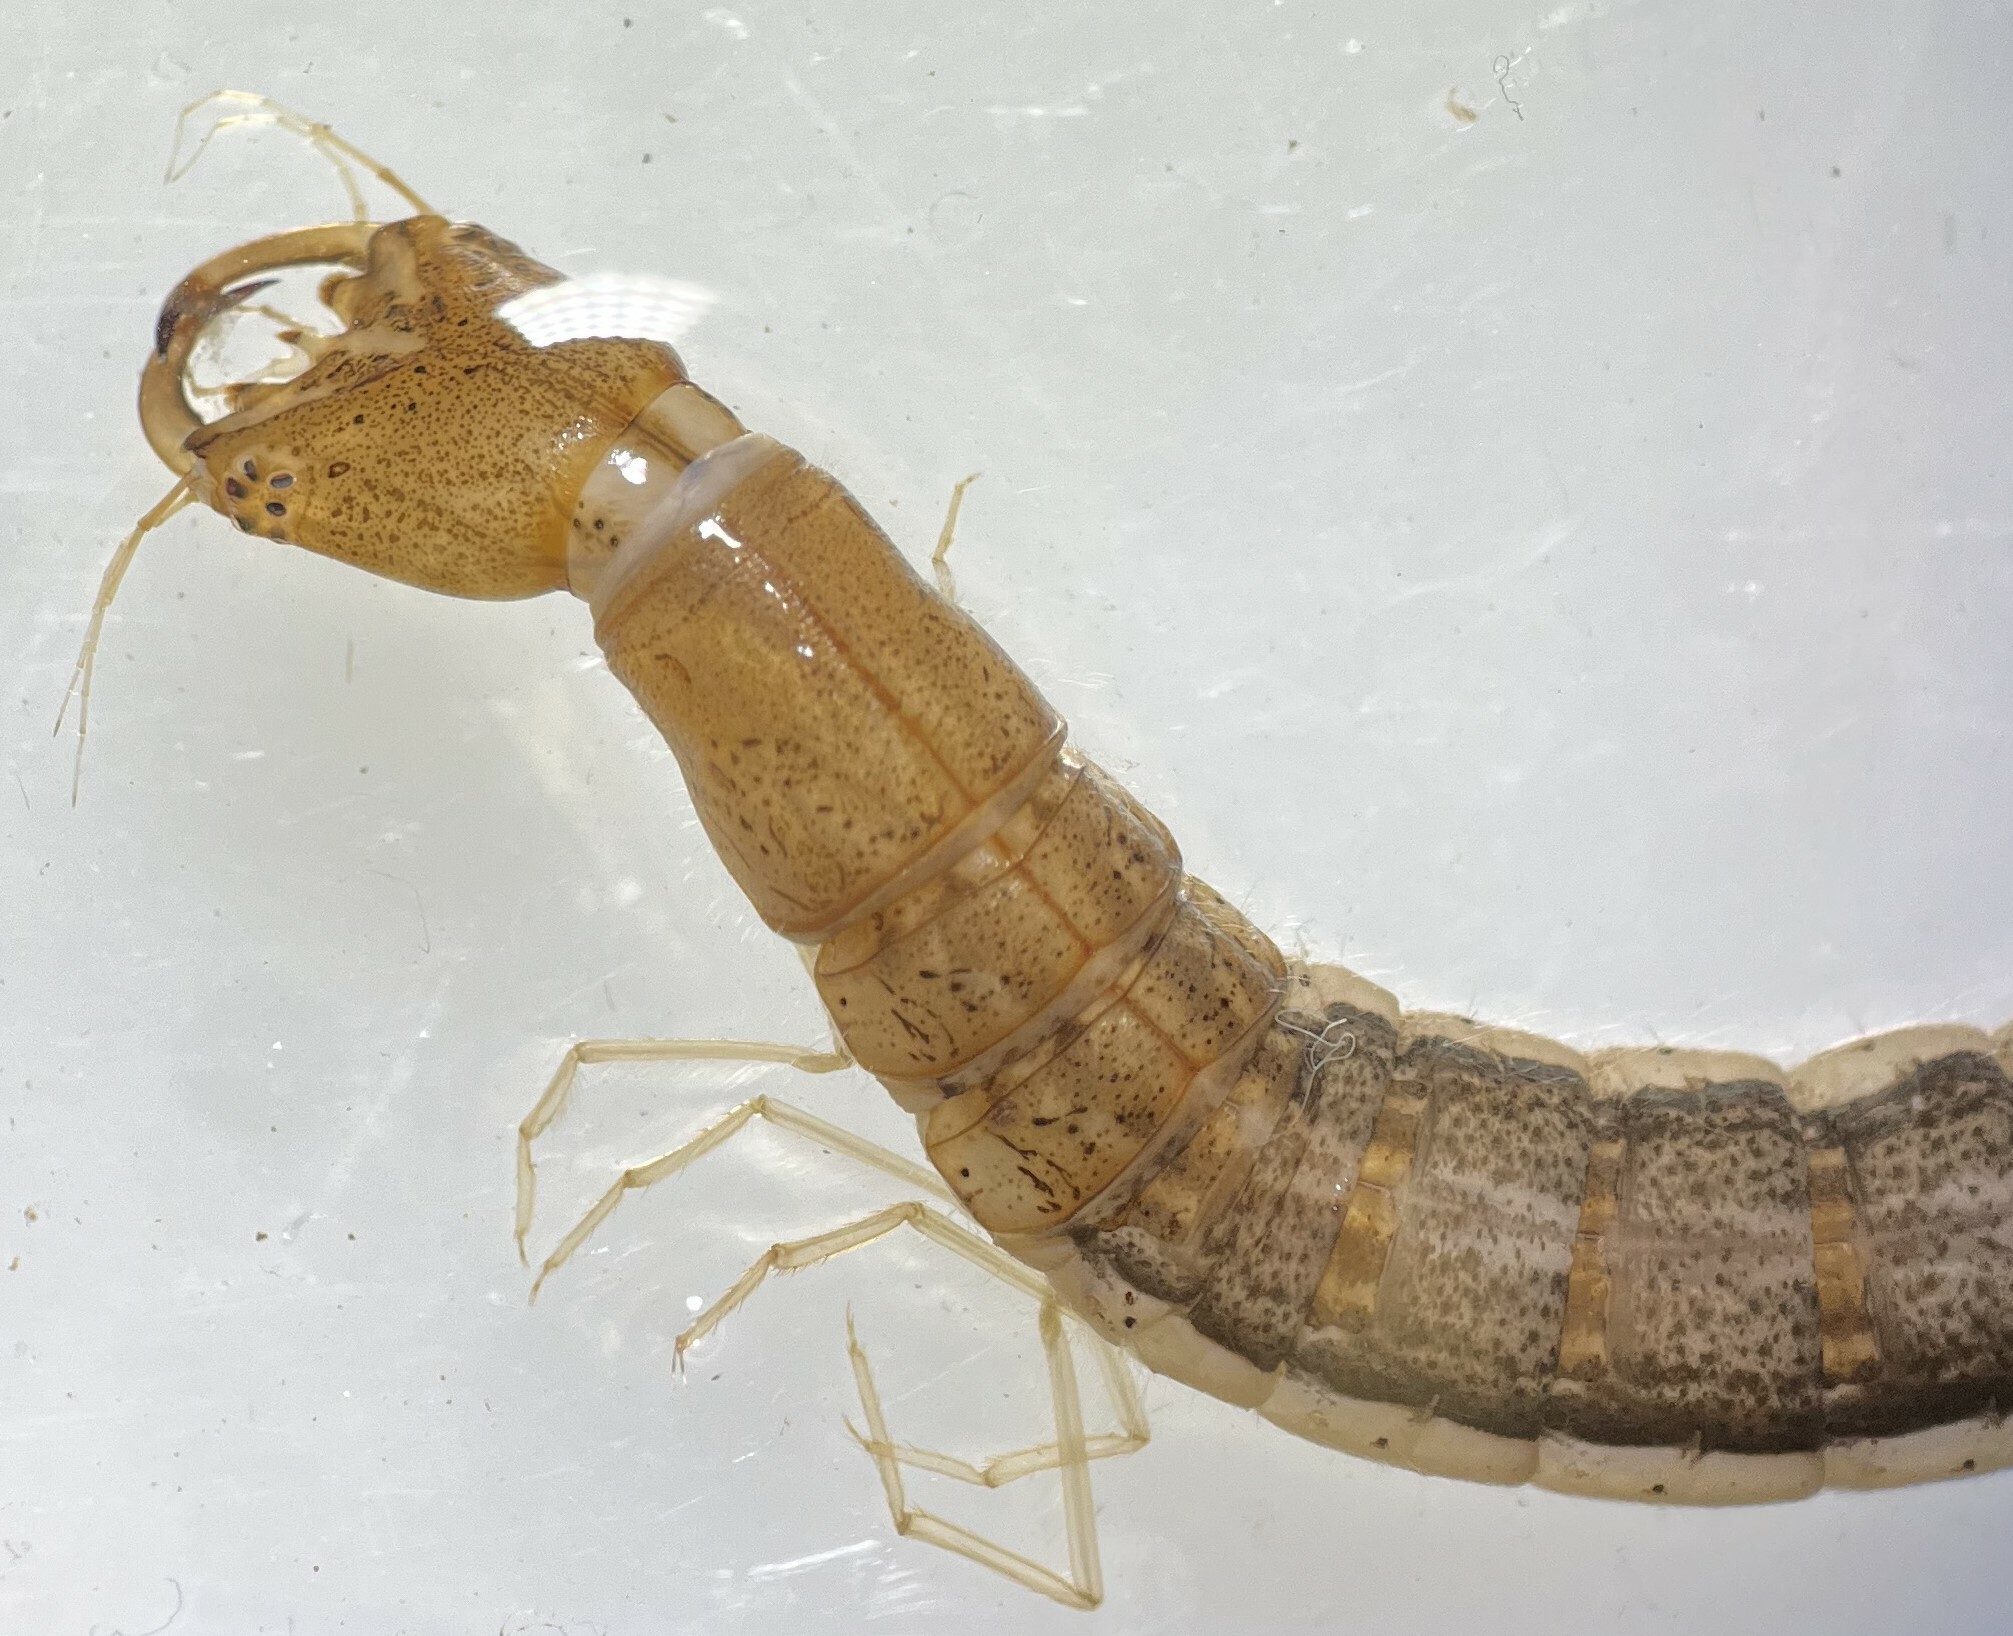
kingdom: Animalia
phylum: Arthropoda
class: Insecta
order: Coleoptera
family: Dytiscidae
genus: Cybister
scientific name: Cybister fimbriolatus
